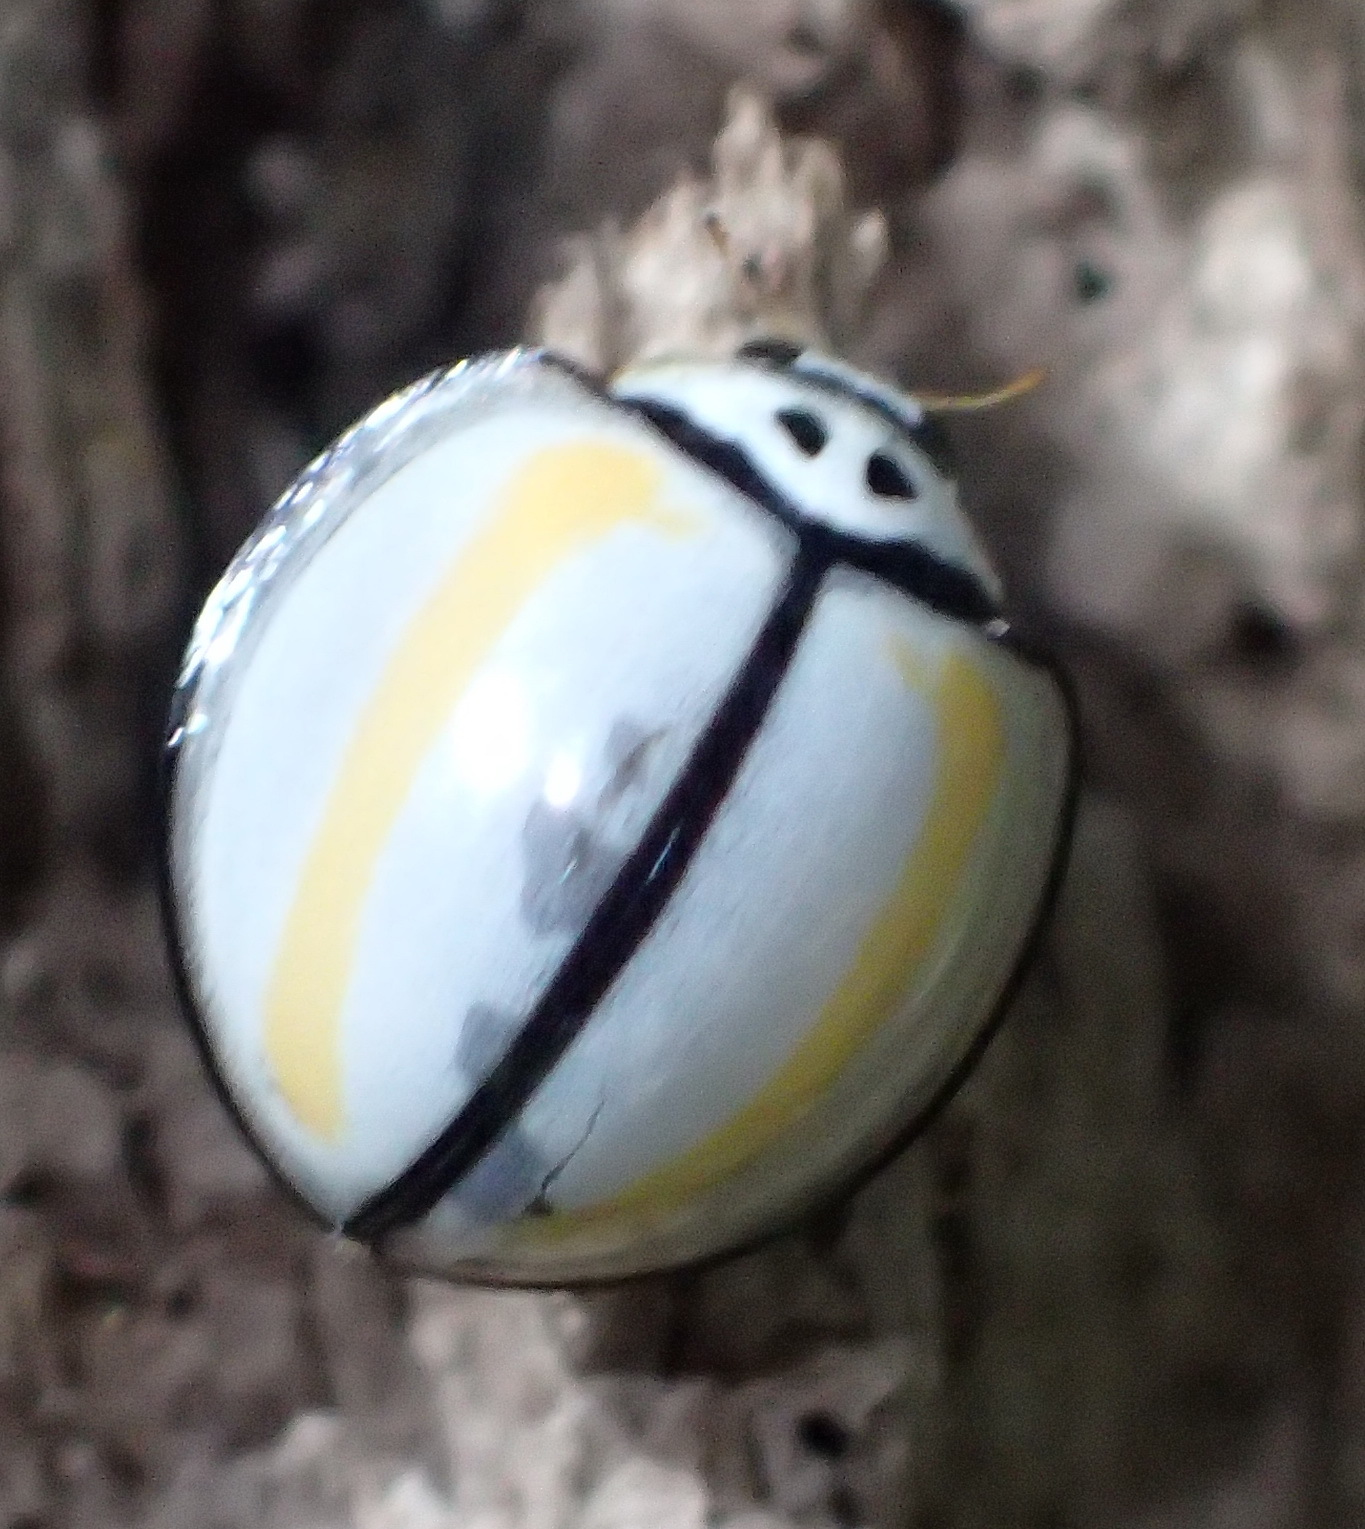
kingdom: Animalia
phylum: Arthropoda
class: Insecta
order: Coleoptera
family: Coccinellidae
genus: Oenopia
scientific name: Oenopia
